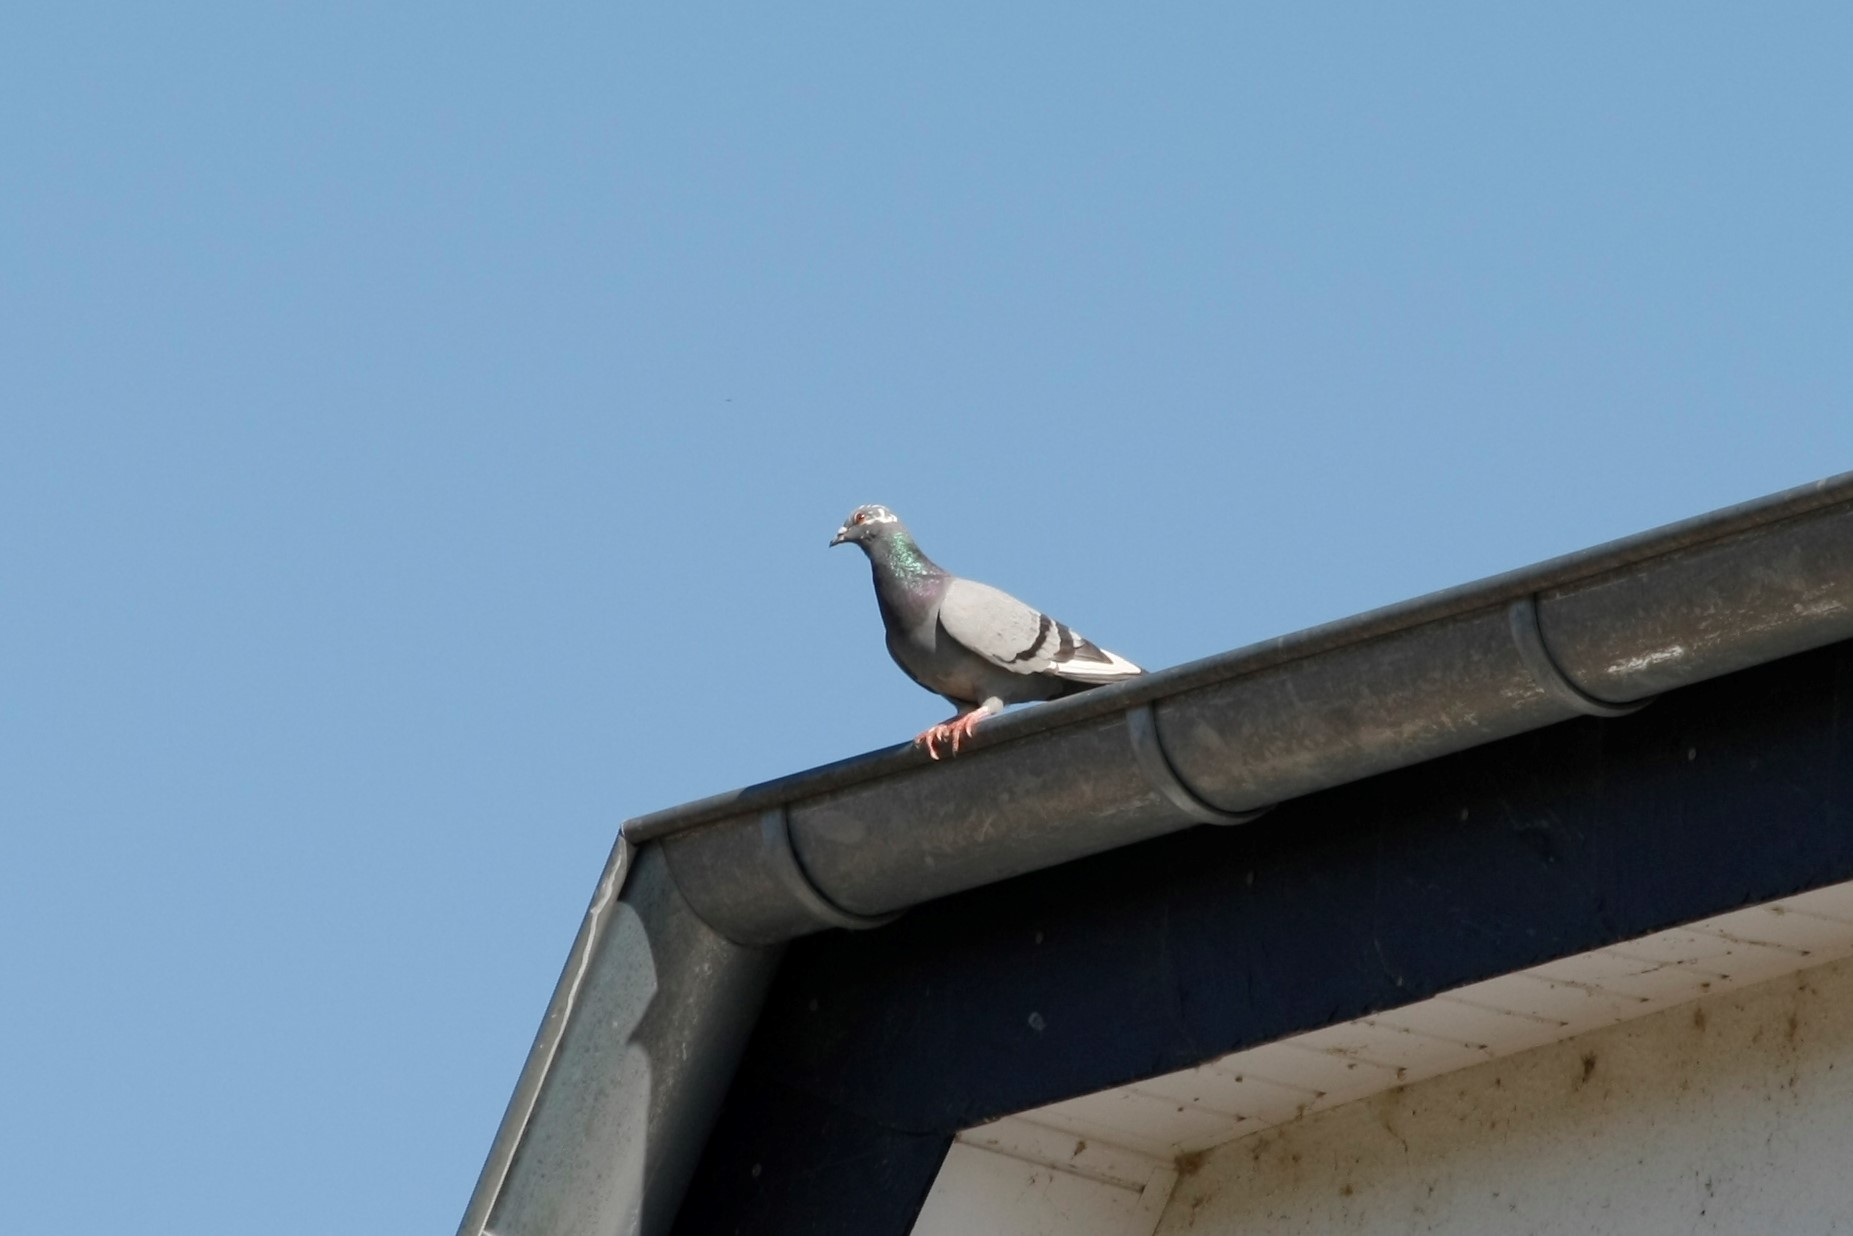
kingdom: Animalia
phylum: Chordata
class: Aves
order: Columbiformes
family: Columbidae
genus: Columba
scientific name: Columba livia
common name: Rock pigeon
